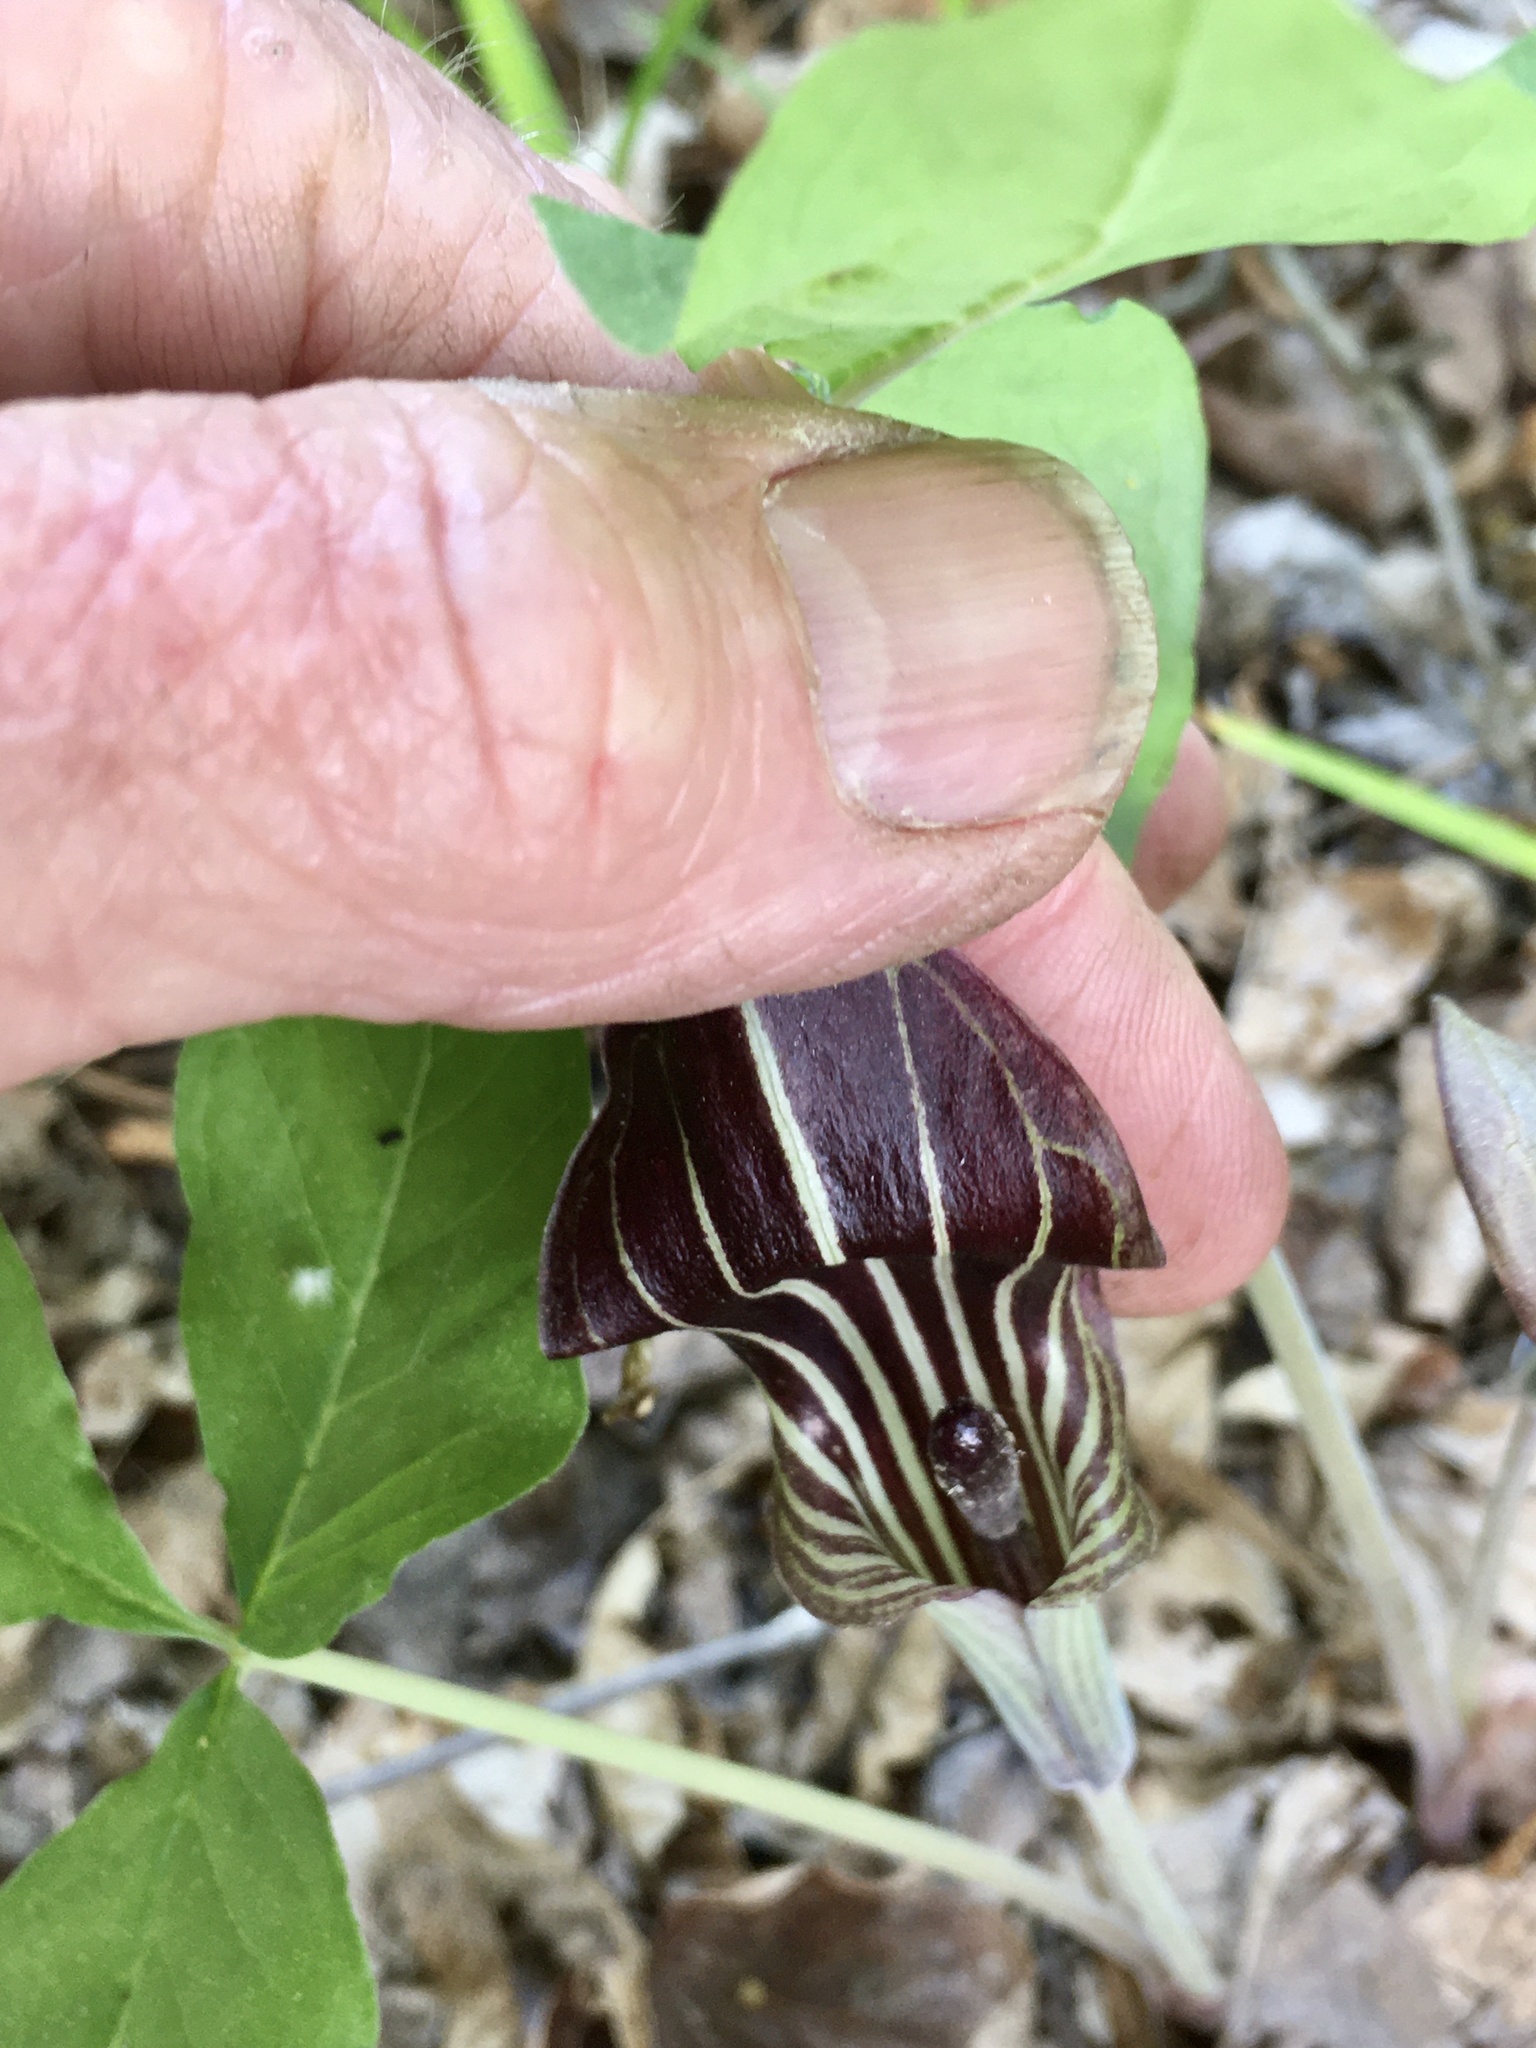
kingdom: Plantae
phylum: Tracheophyta
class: Liliopsida
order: Alismatales
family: Araceae
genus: Arisaema
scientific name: Arisaema triphyllum
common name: Jack-in-the-pulpit
